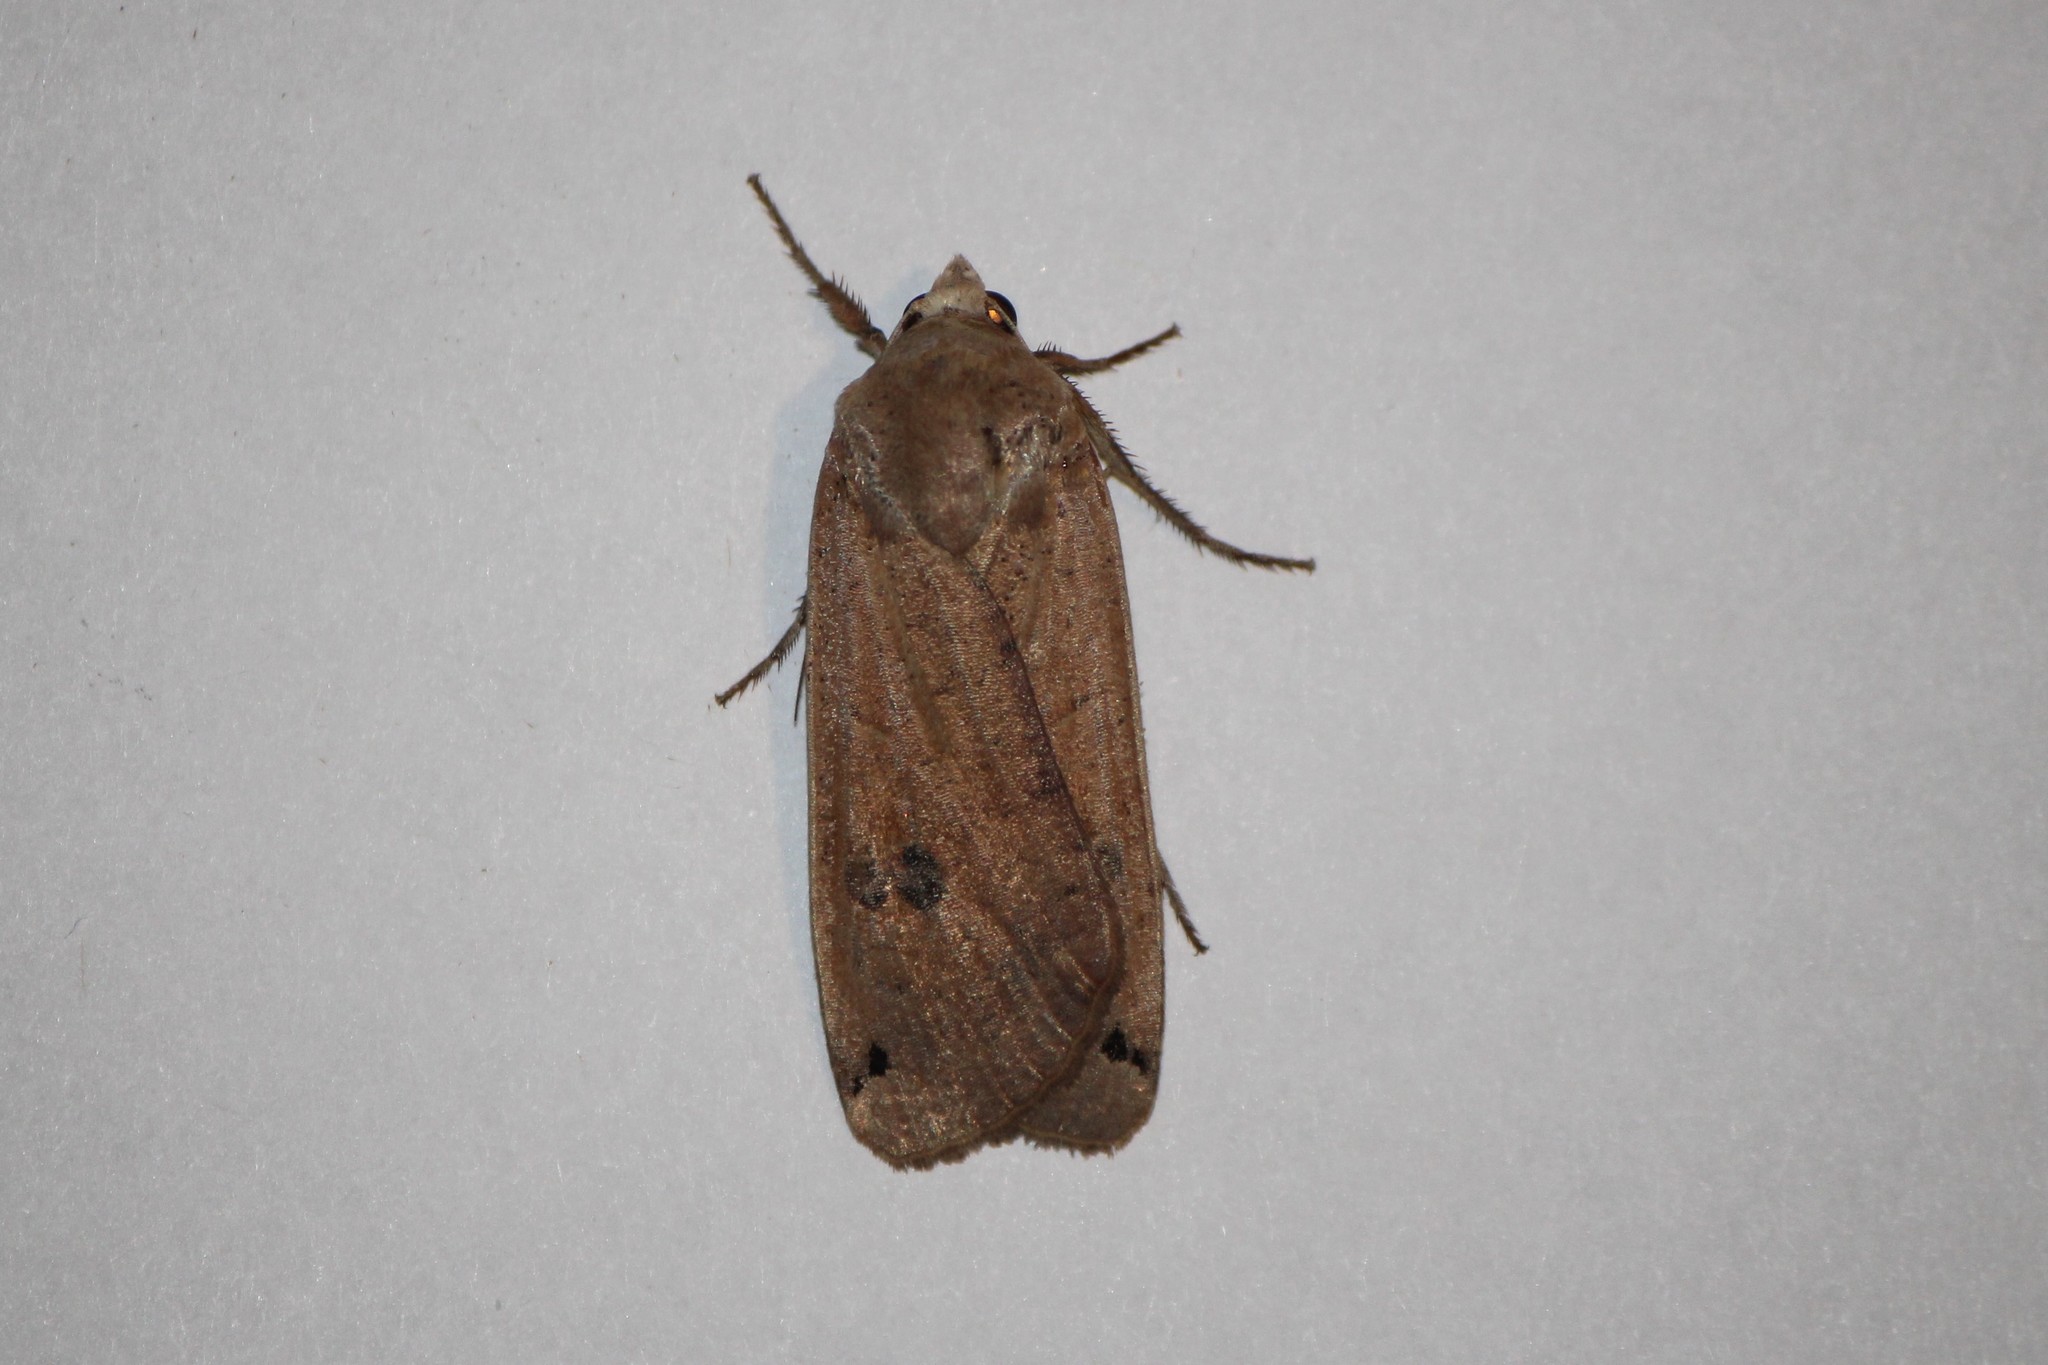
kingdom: Animalia
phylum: Arthropoda
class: Insecta
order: Lepidoptera
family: Noctuidae
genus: Noctua
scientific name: Noctua pronuba
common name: Large yellow underwing
